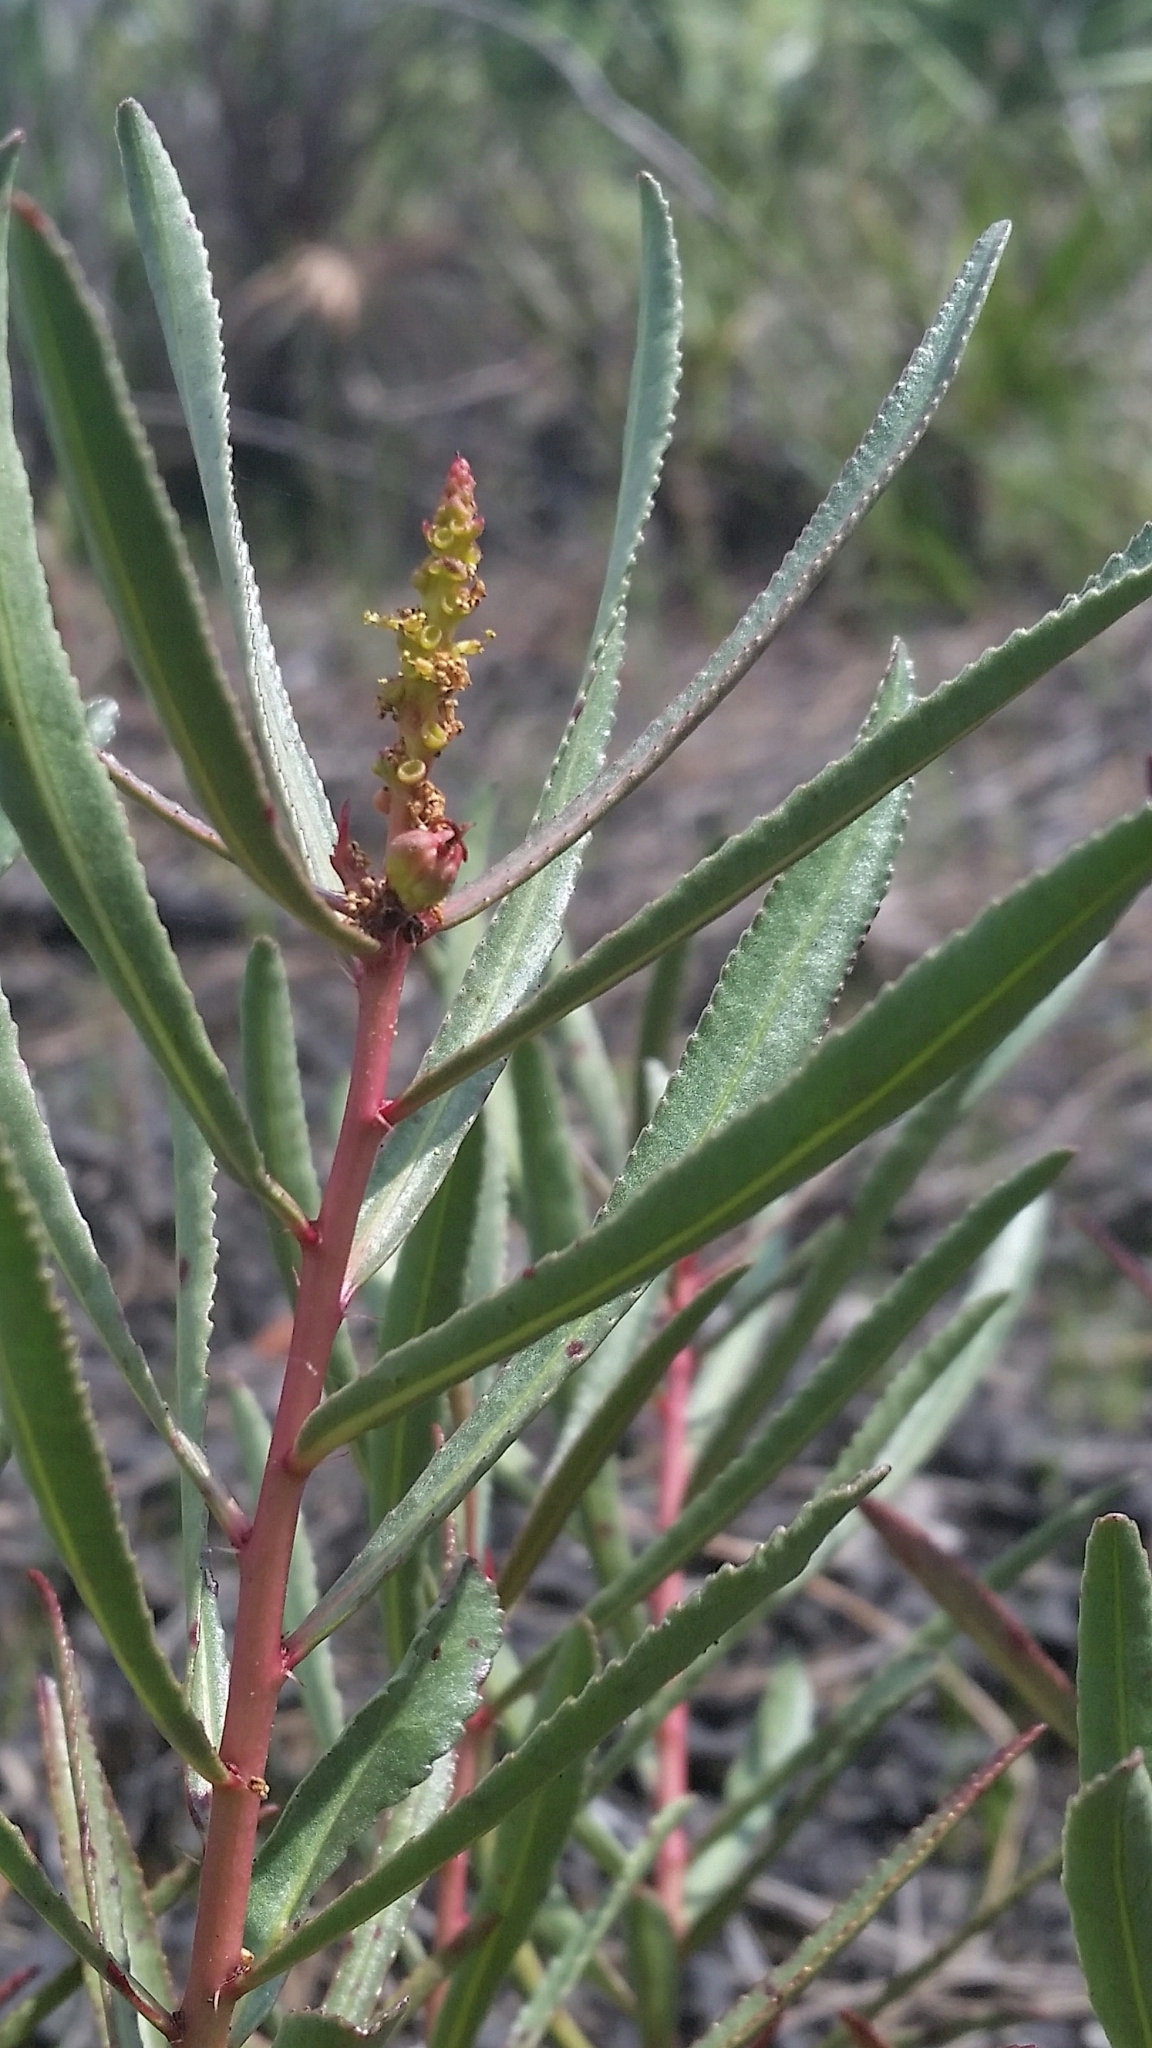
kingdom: Plantae
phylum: Tracheophyta
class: Magnoliopsida
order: Malpighiales
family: Euphorbiaceae
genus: Stillingia
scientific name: Stillingia sylvatica
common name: Queen's-delight
